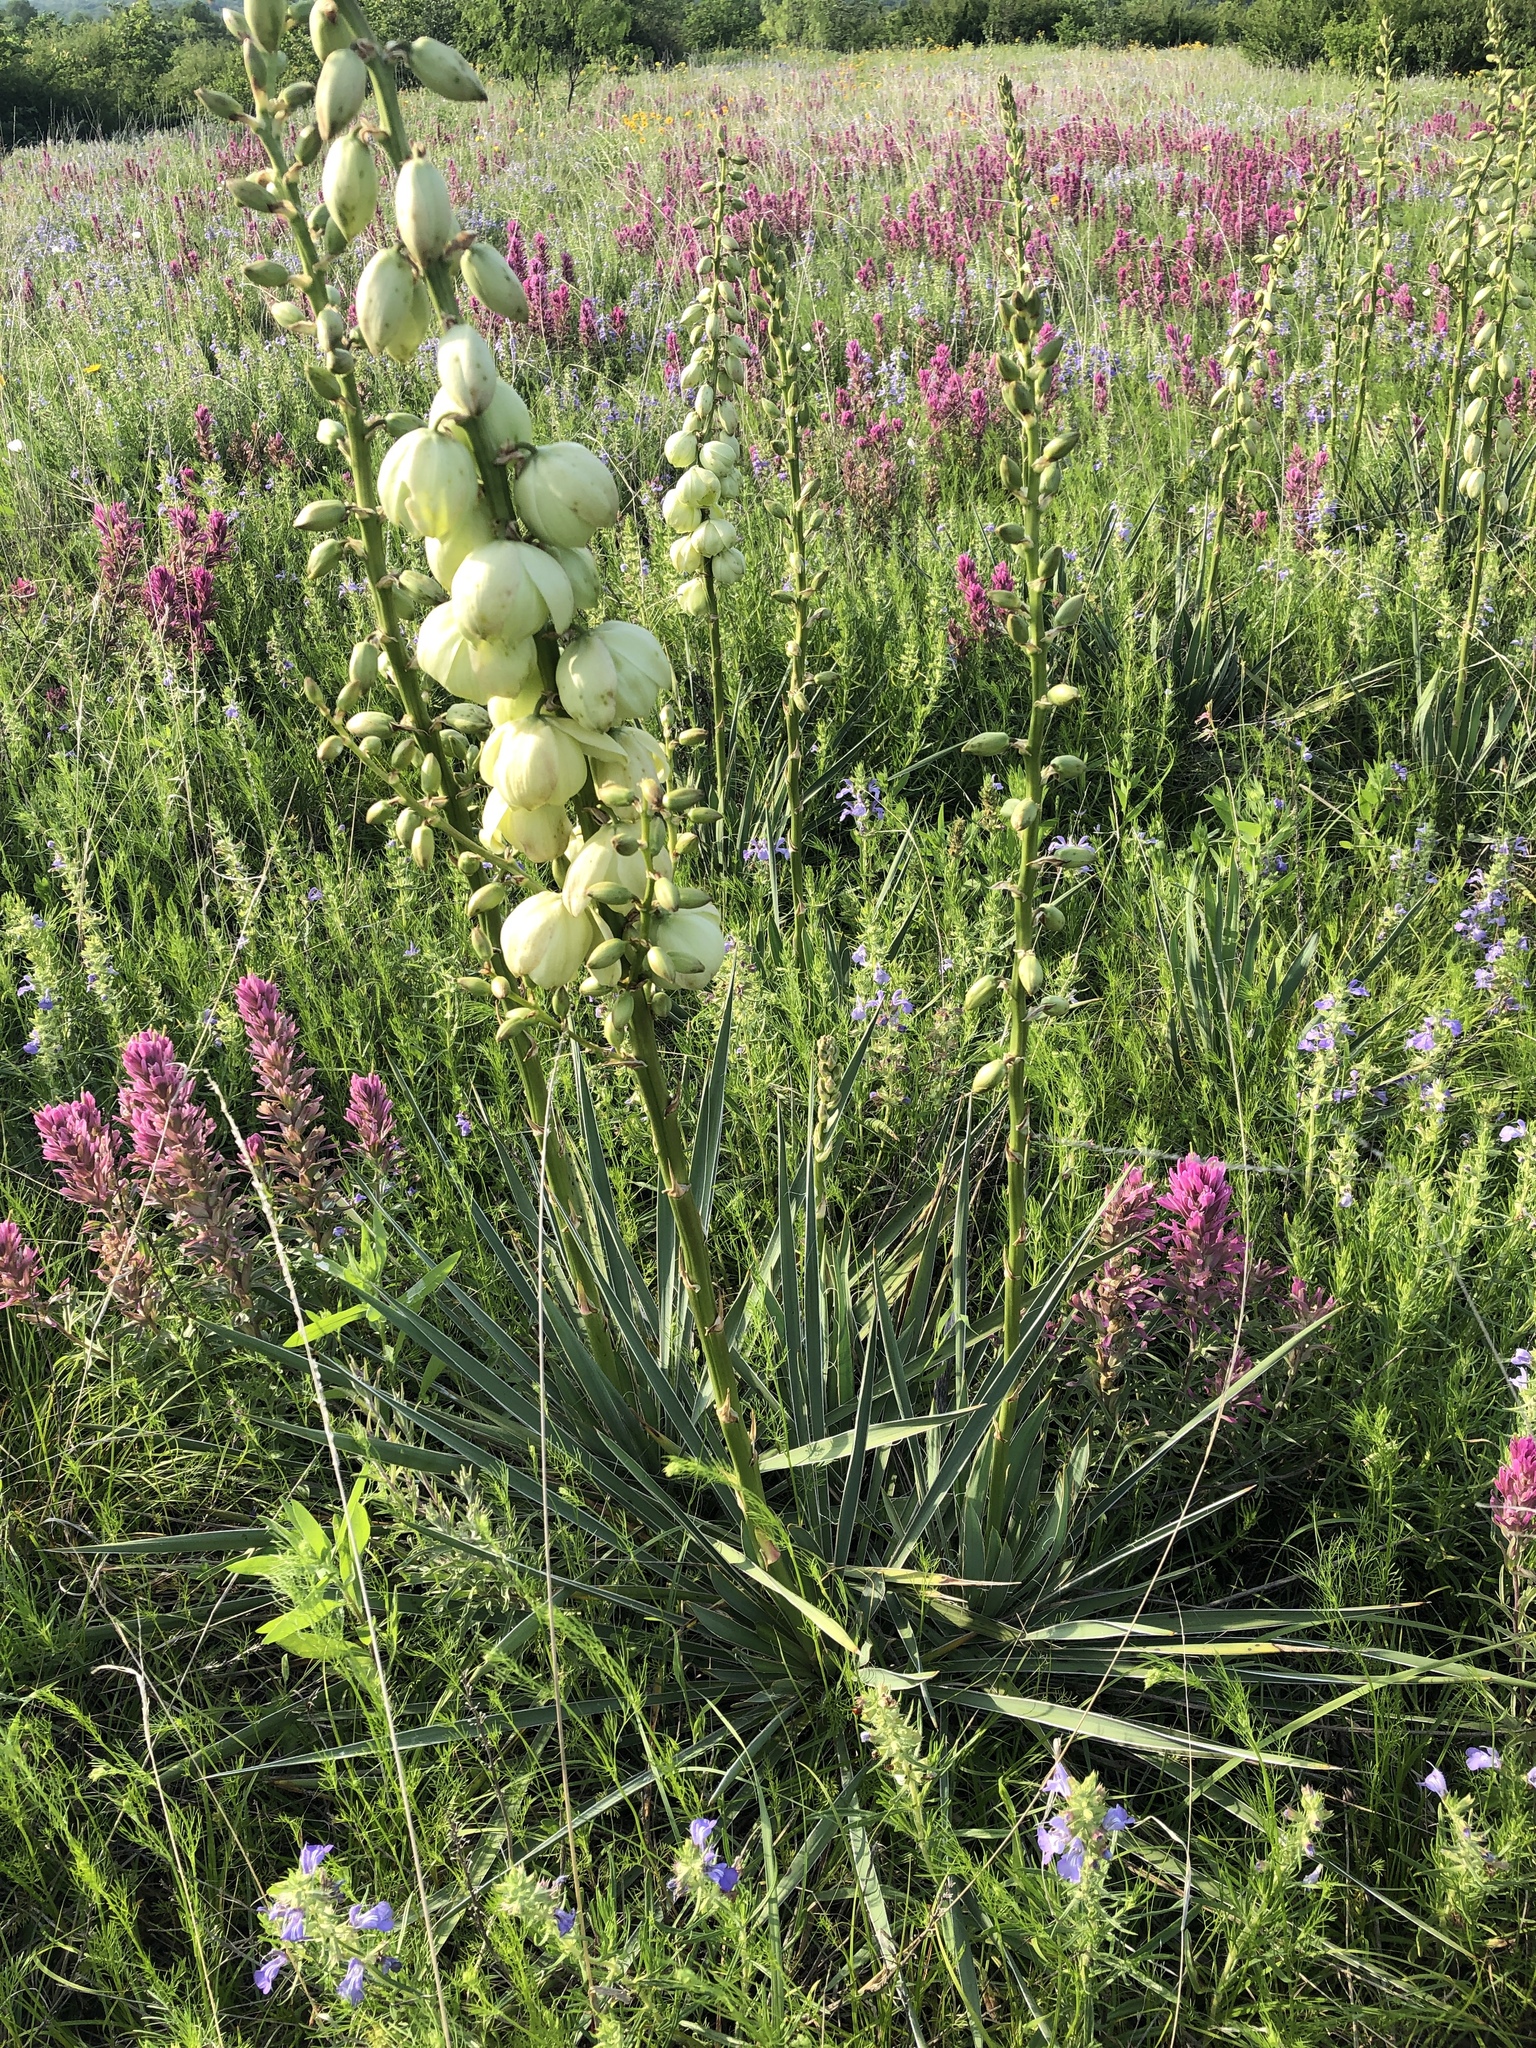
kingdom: Plantae
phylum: Tracheophyta
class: Liliopsida
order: Asparagales
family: Asparagaceae
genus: Yucca
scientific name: Yucca arkansana
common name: Arkansas yucca
